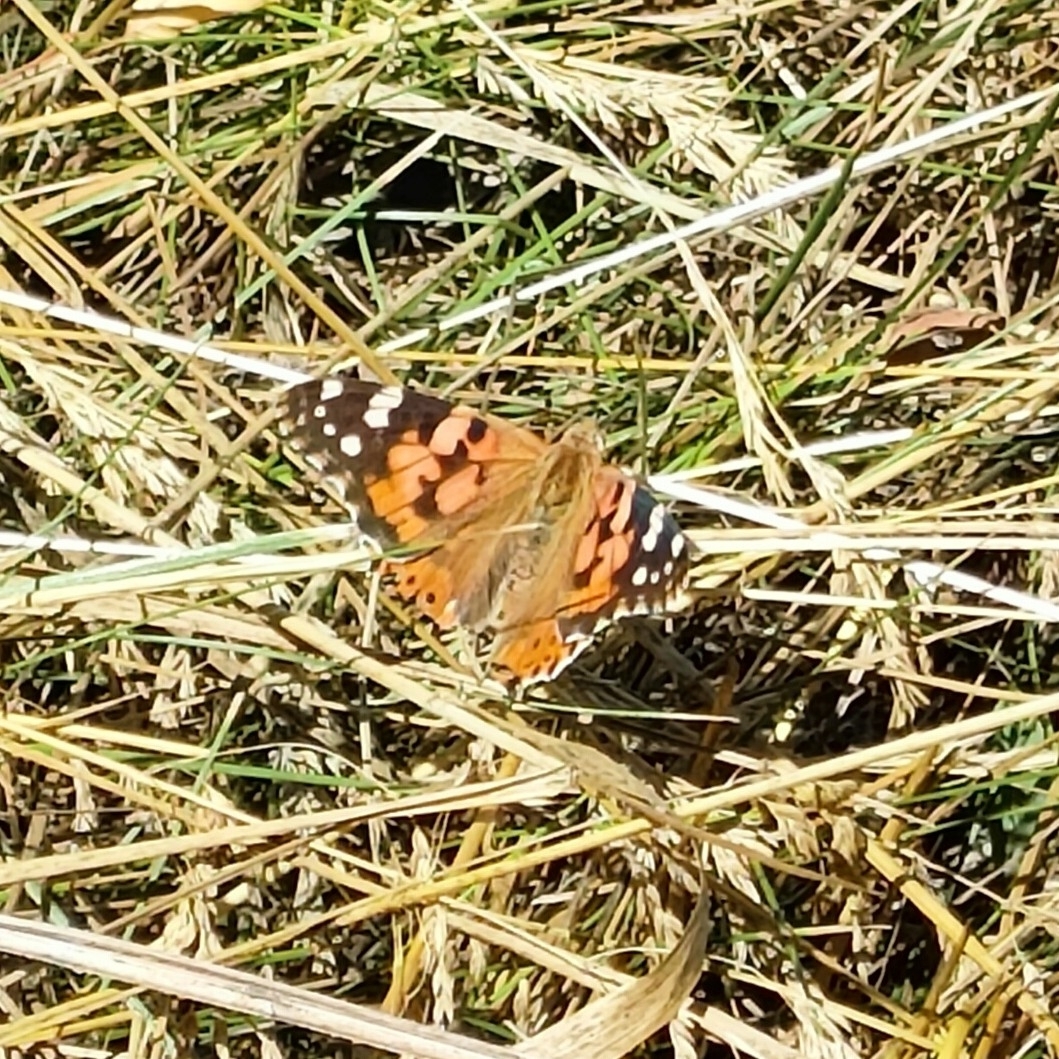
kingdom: Animalia
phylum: Arthropoda
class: Insecta
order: Lepidoptera
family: Nymphalidae
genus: Vanessa
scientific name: Vanessa cardui
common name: Painted lady
